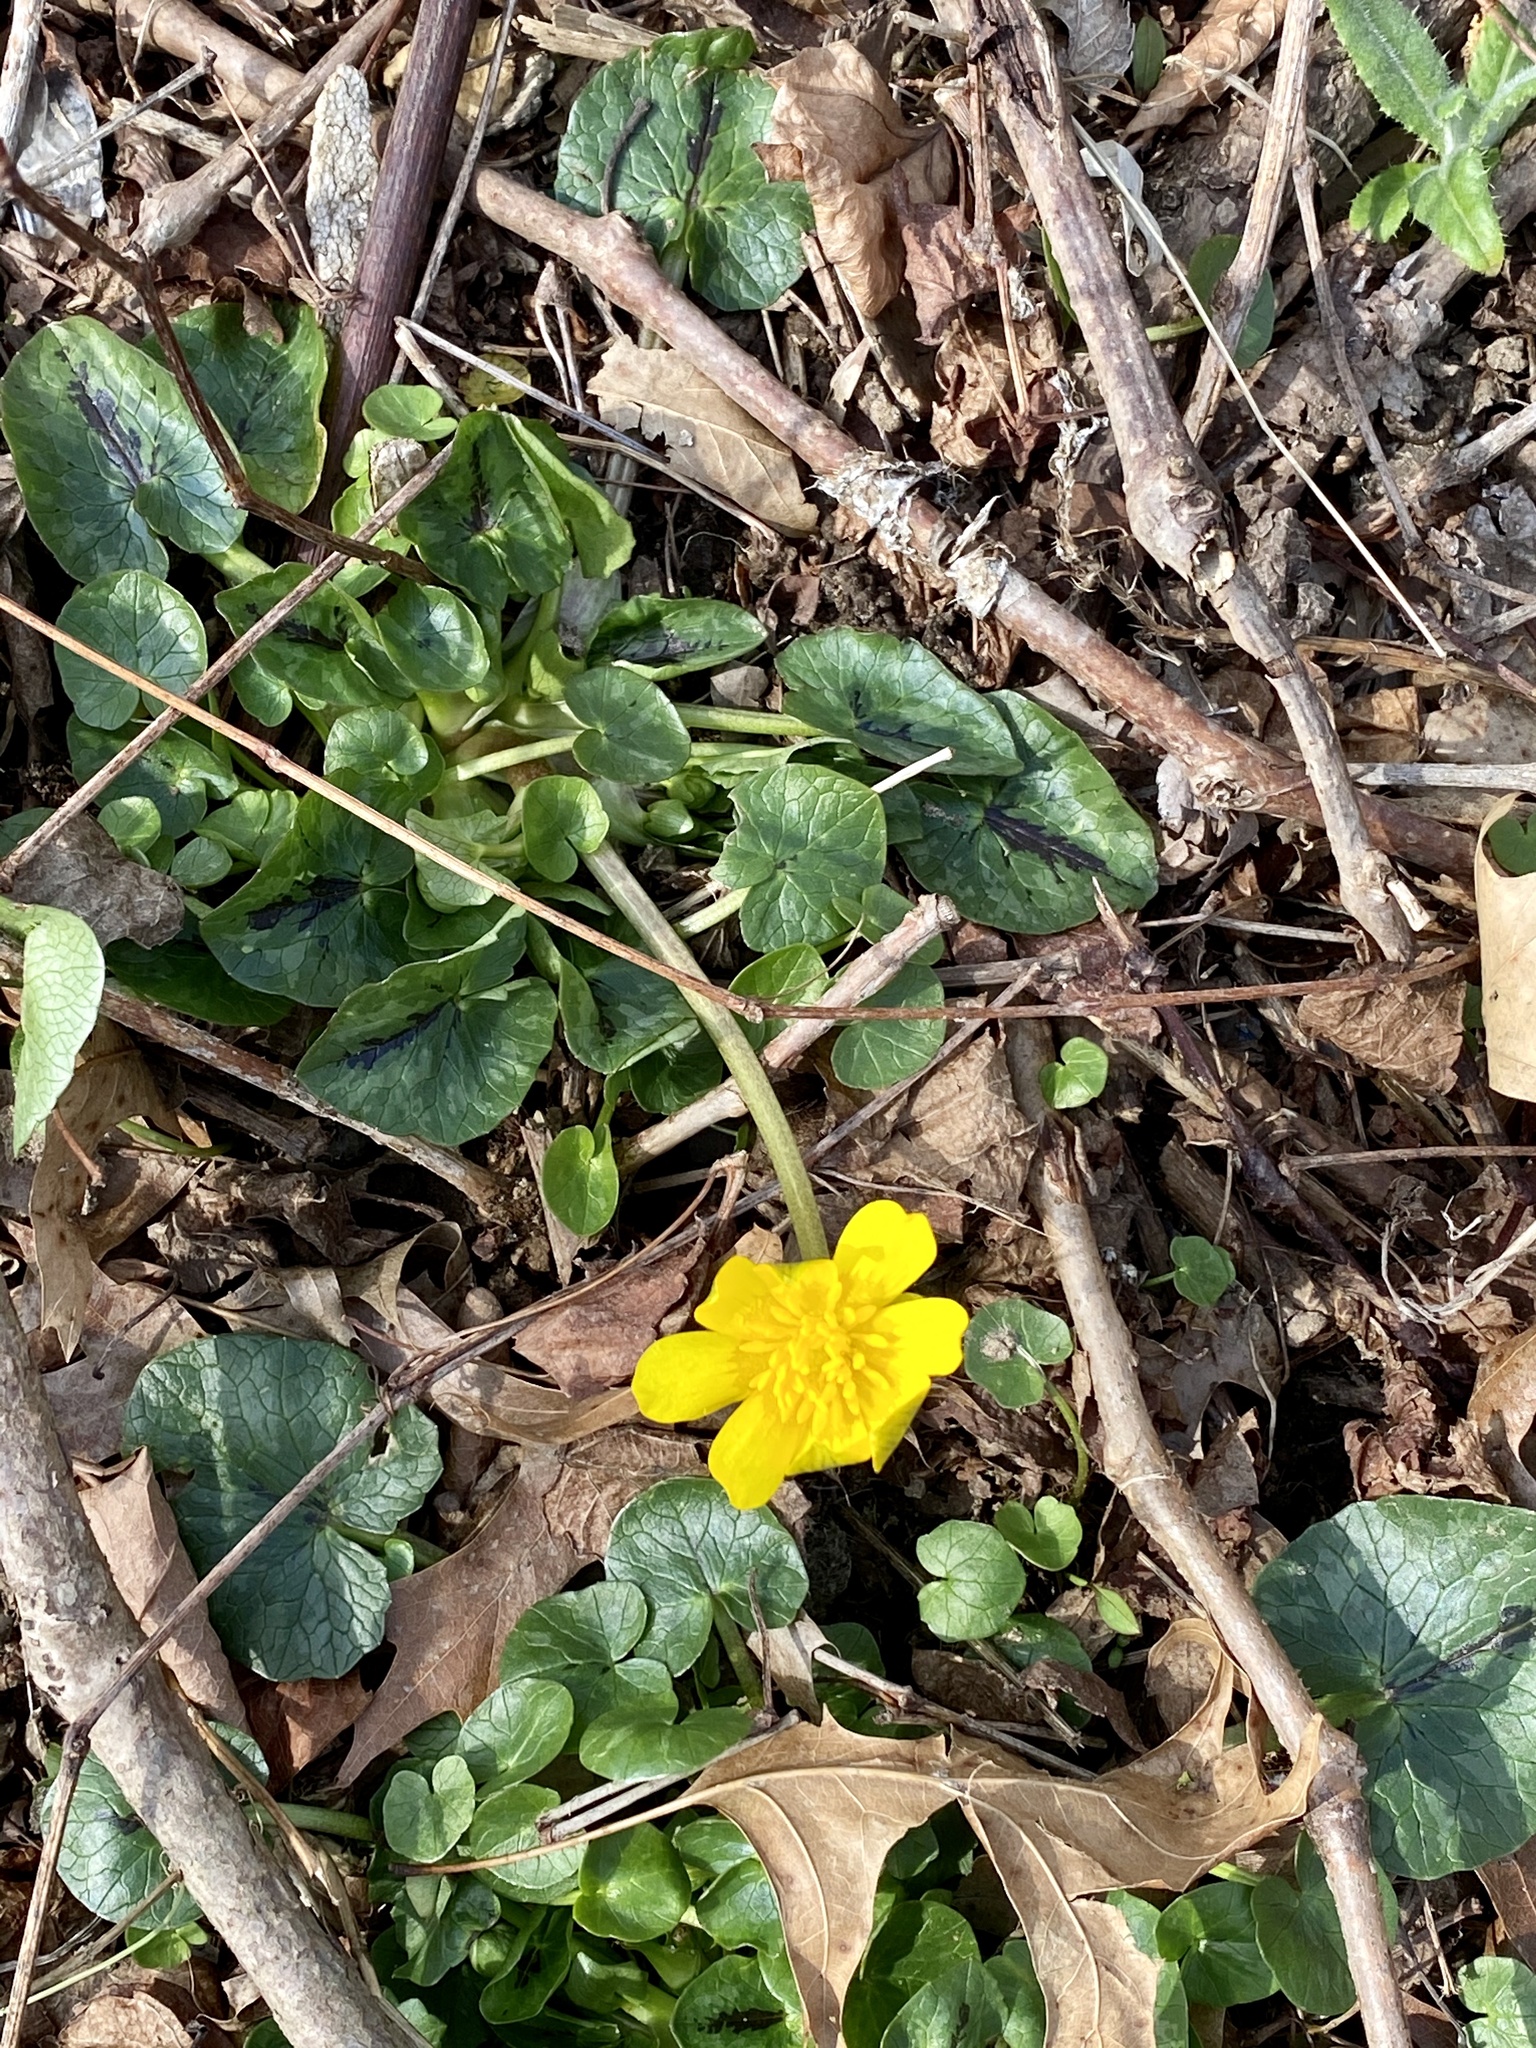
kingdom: Plantae
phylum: Tracheophyta
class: Magnoliopsida
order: Ranunculales
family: Ranunculaceae
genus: Ficaria
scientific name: Ficaria verna
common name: Lesser celandine
